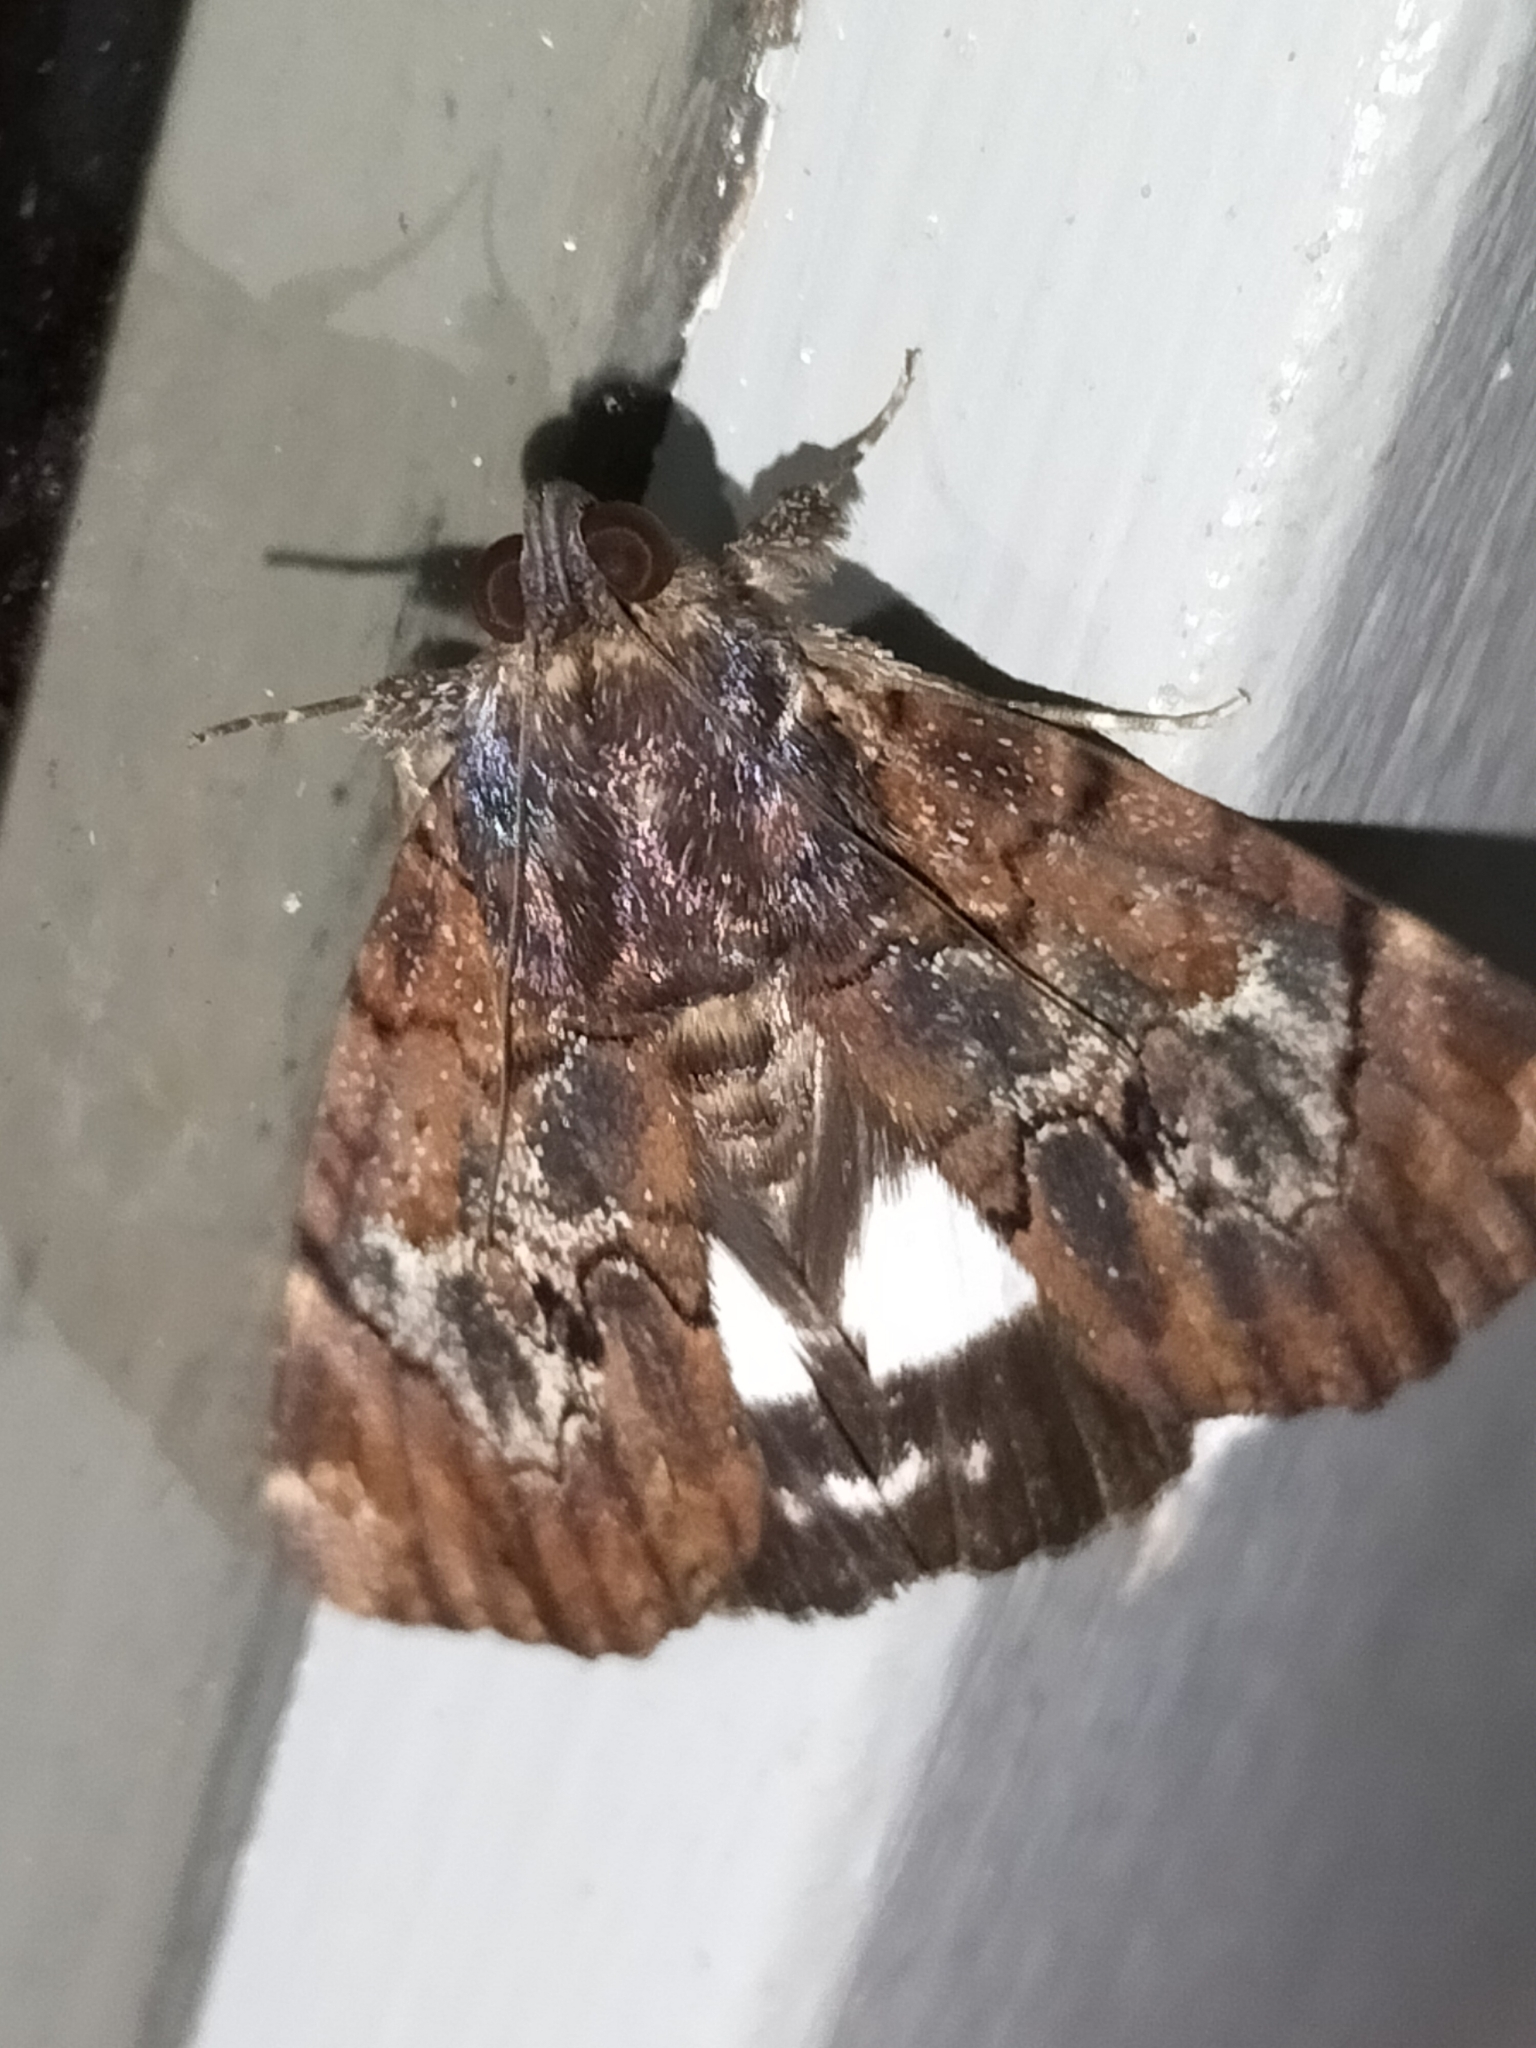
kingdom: Animalia
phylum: Arthropoda
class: Insecta
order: Lepidoptera
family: Erebidae
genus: Catephia
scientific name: Catephia linteola
